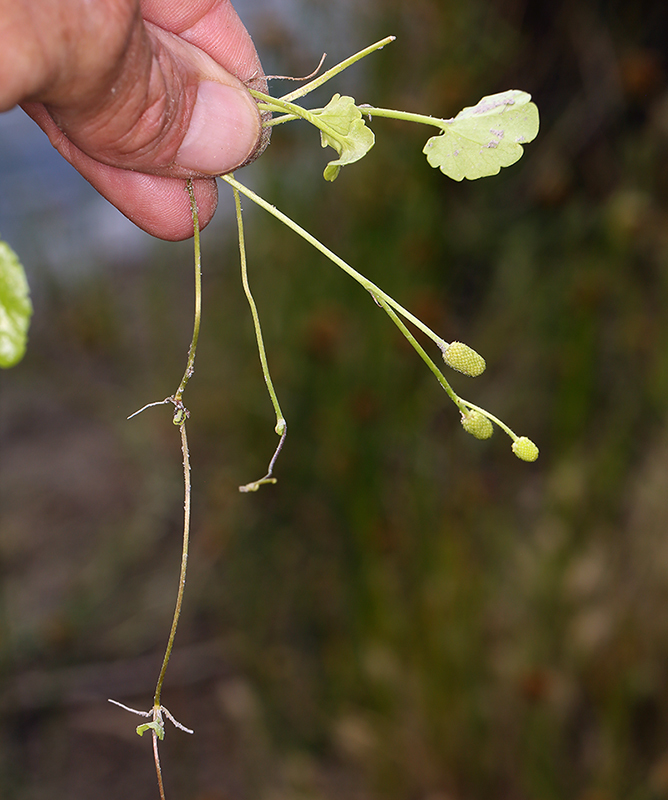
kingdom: Plantae
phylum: Tracheophyta
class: Magnoliopsida
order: Ranunculales
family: Ranunculaceae
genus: Halerpestes
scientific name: Halerpestes cymbalaria
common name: Seaside crowfoot
